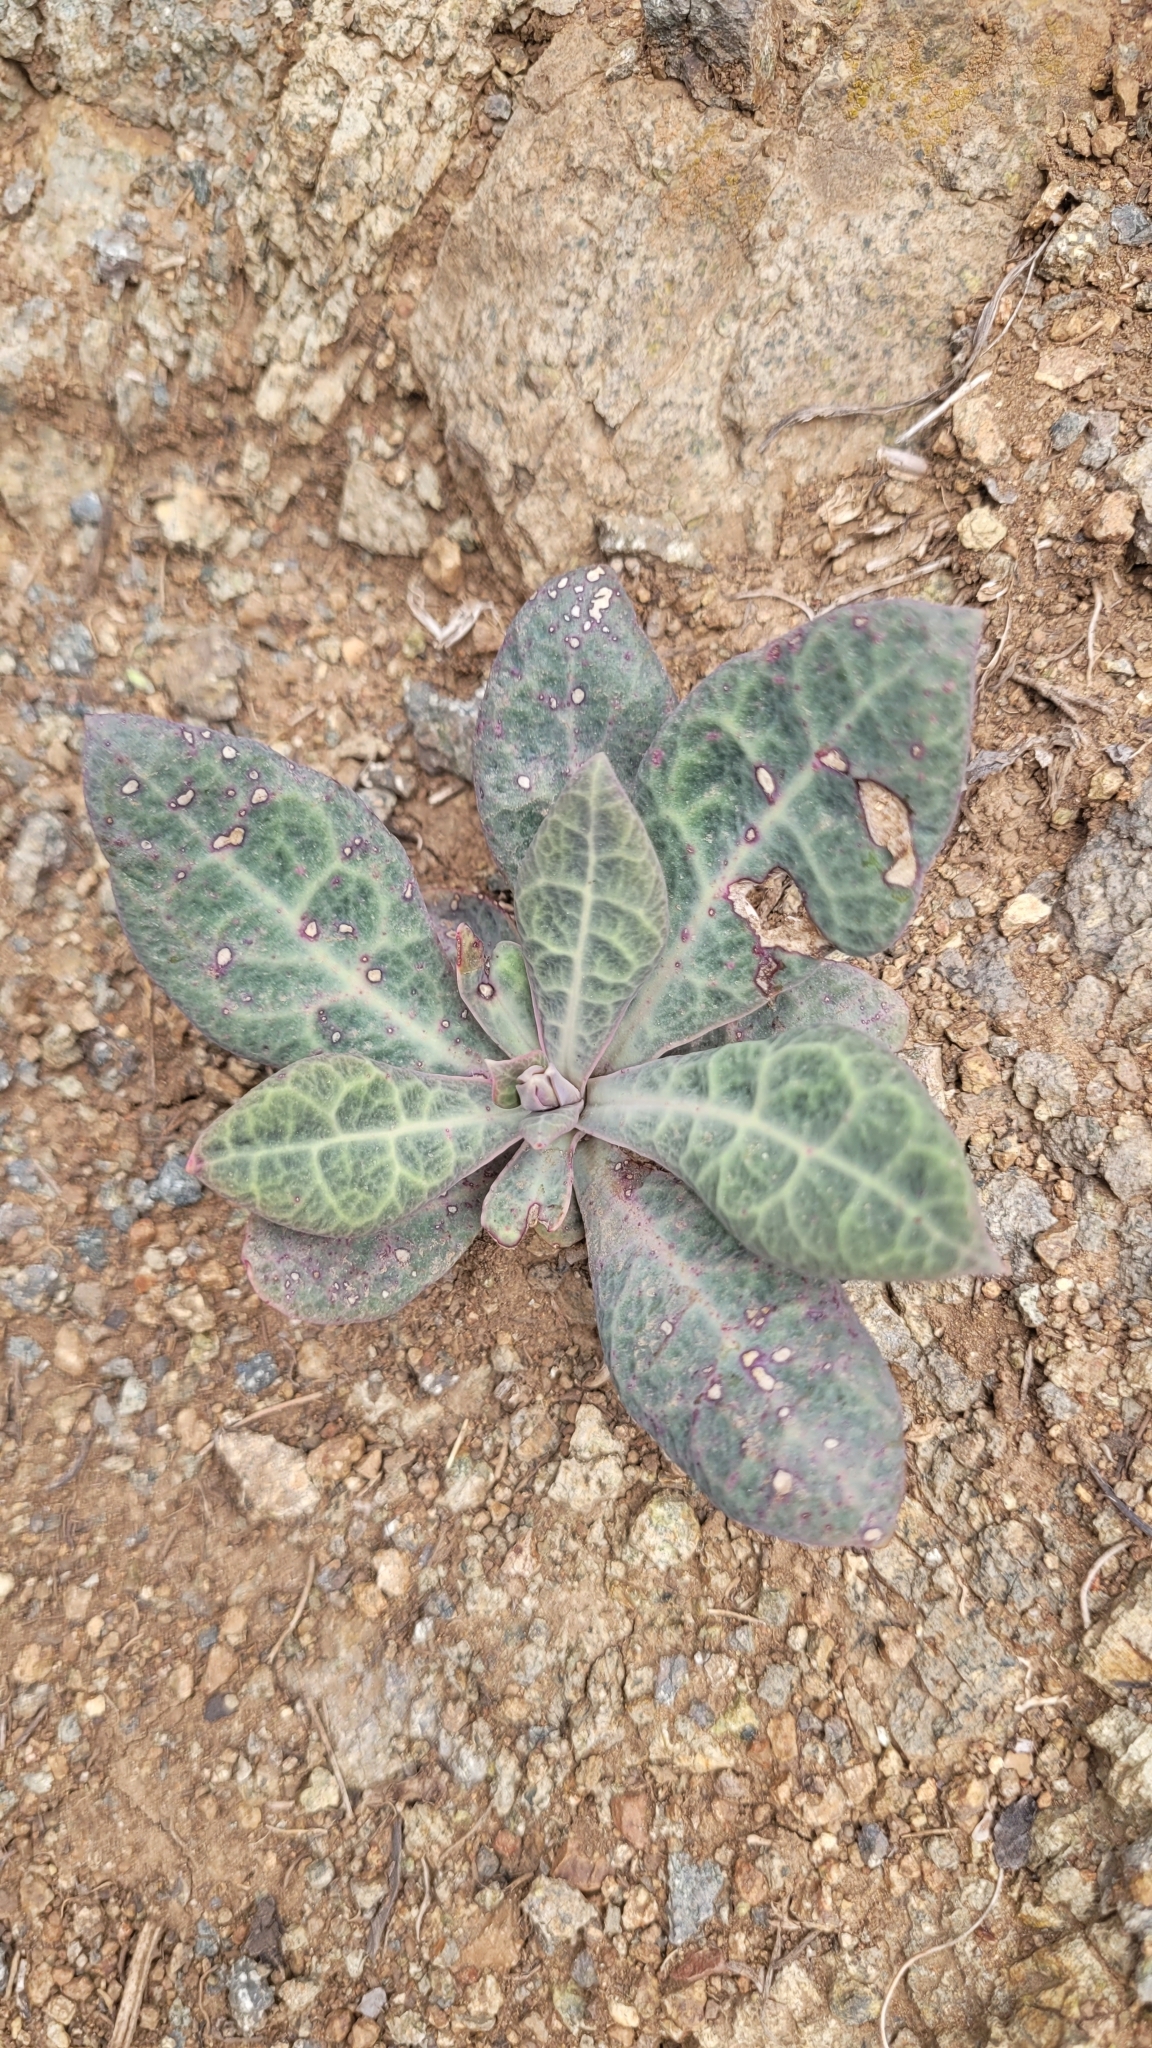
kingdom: Plantae
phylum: Tracheophyta
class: Magnoliopsida
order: Caryophyllales
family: Montiaceae
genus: Cistanthe
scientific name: Cistanthe grandiflora
